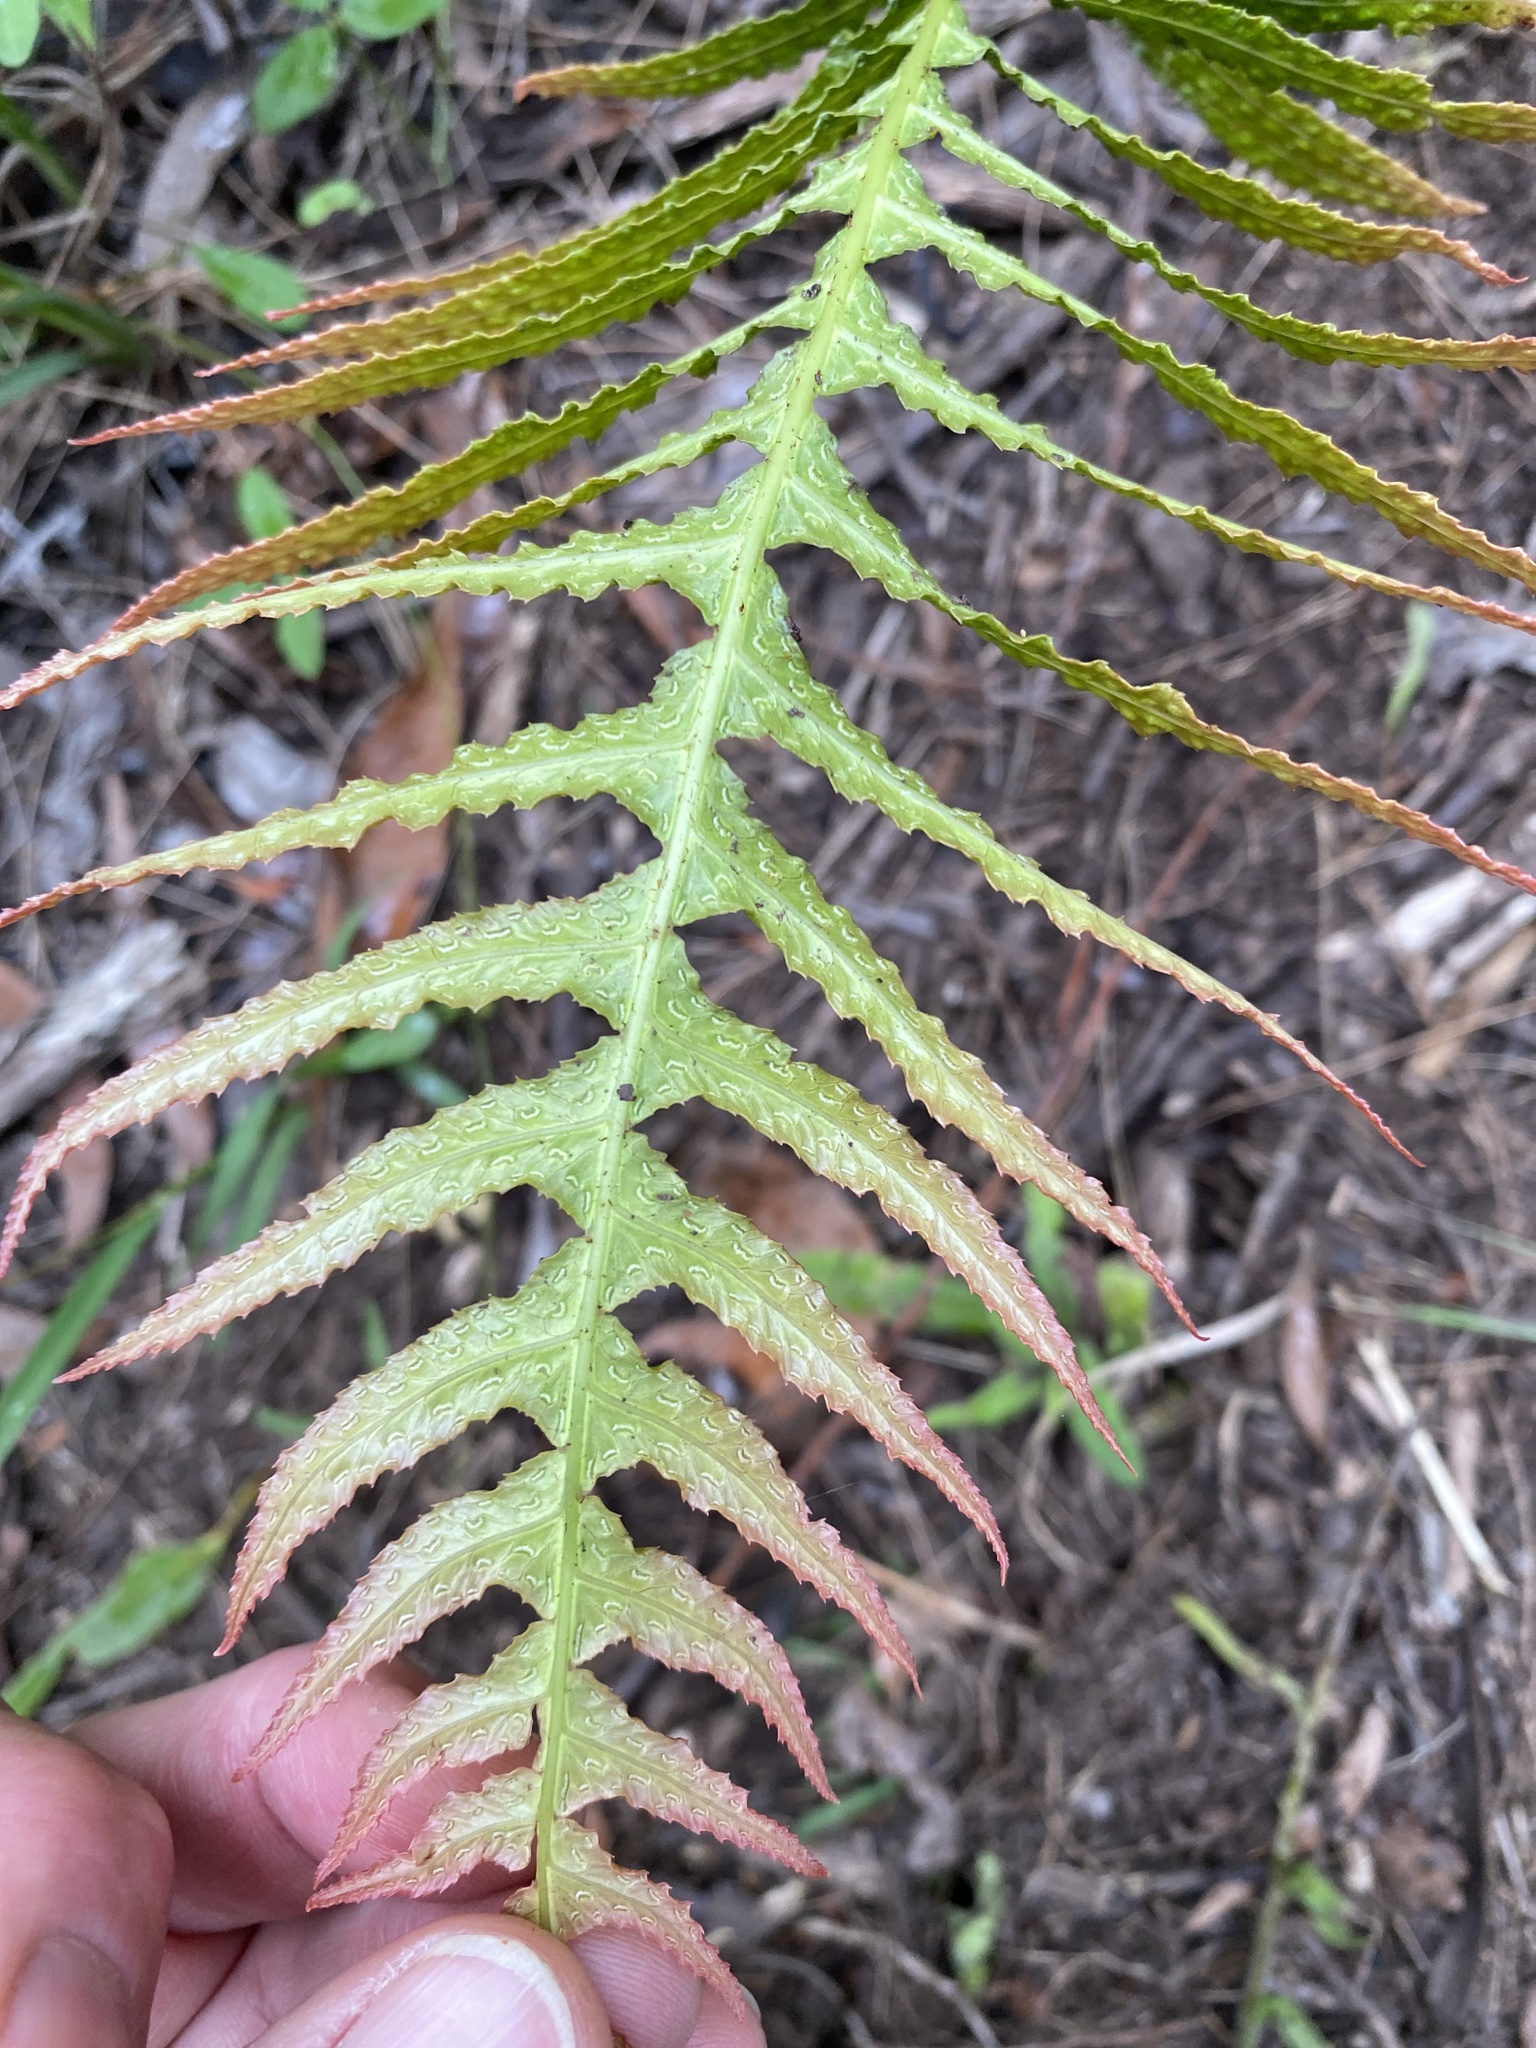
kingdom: Plantae
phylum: Tracheophyta
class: Polypodiopsida
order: Polypodiales
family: Blechnaceae
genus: Doodia
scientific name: Doodia aspera
